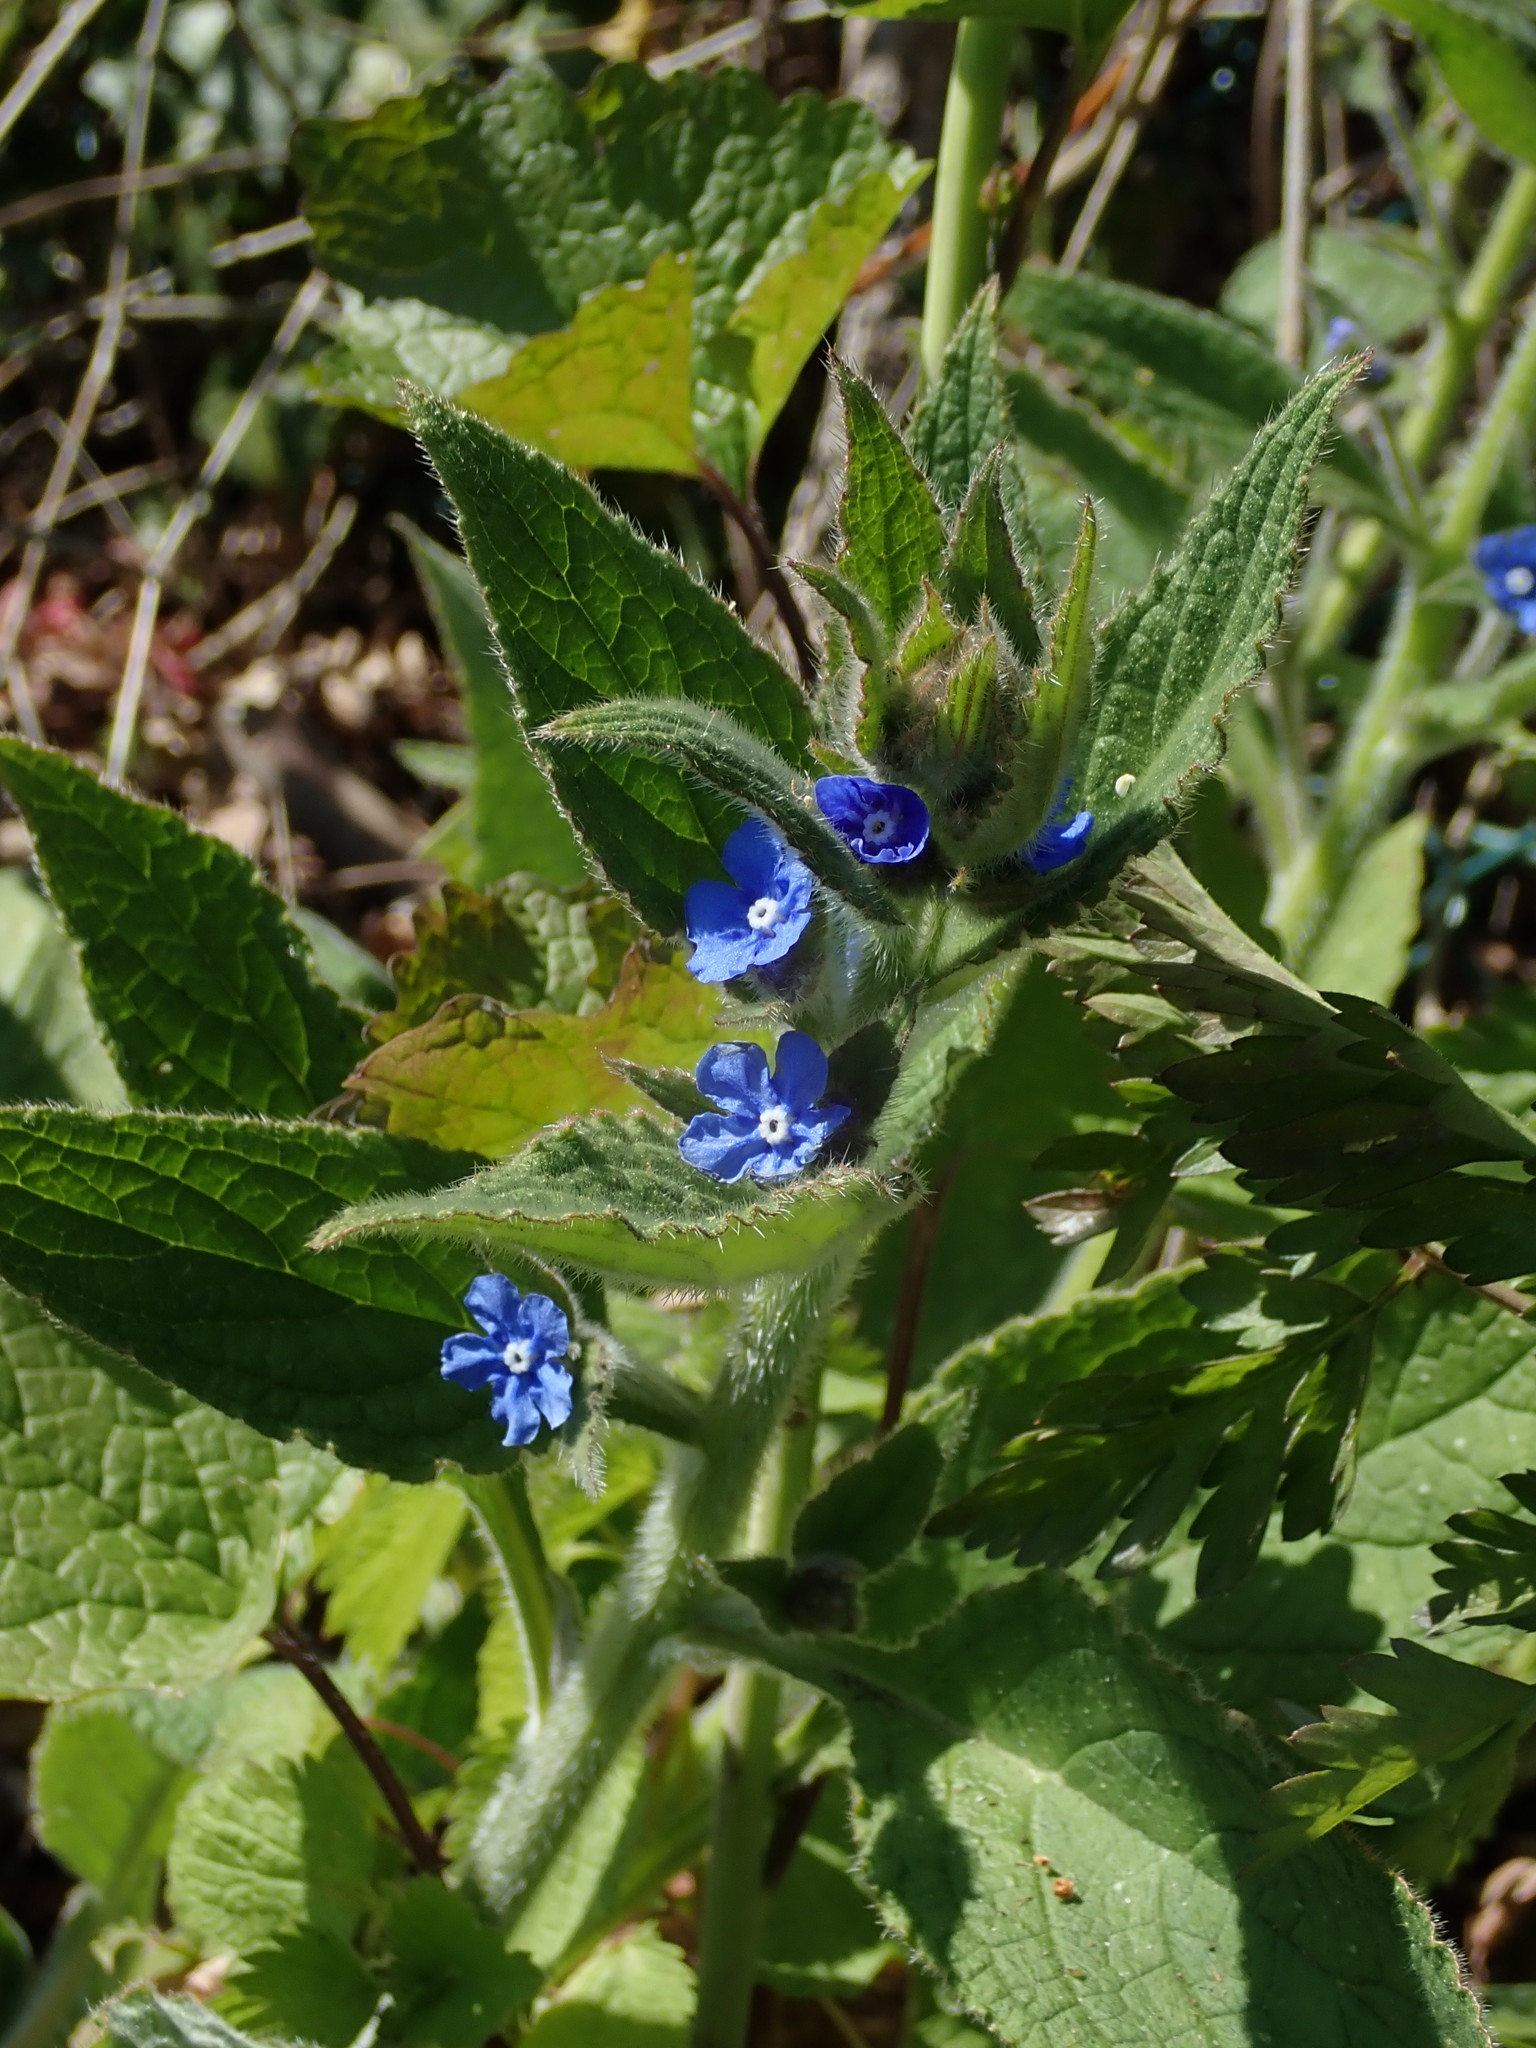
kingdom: Plantae
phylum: Tracheophyta
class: Magnoliopsida
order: Boraginales
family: Boraginaceae
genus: Pentaglottis
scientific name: Pentaglottis sempervirens
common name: Green alkanet
